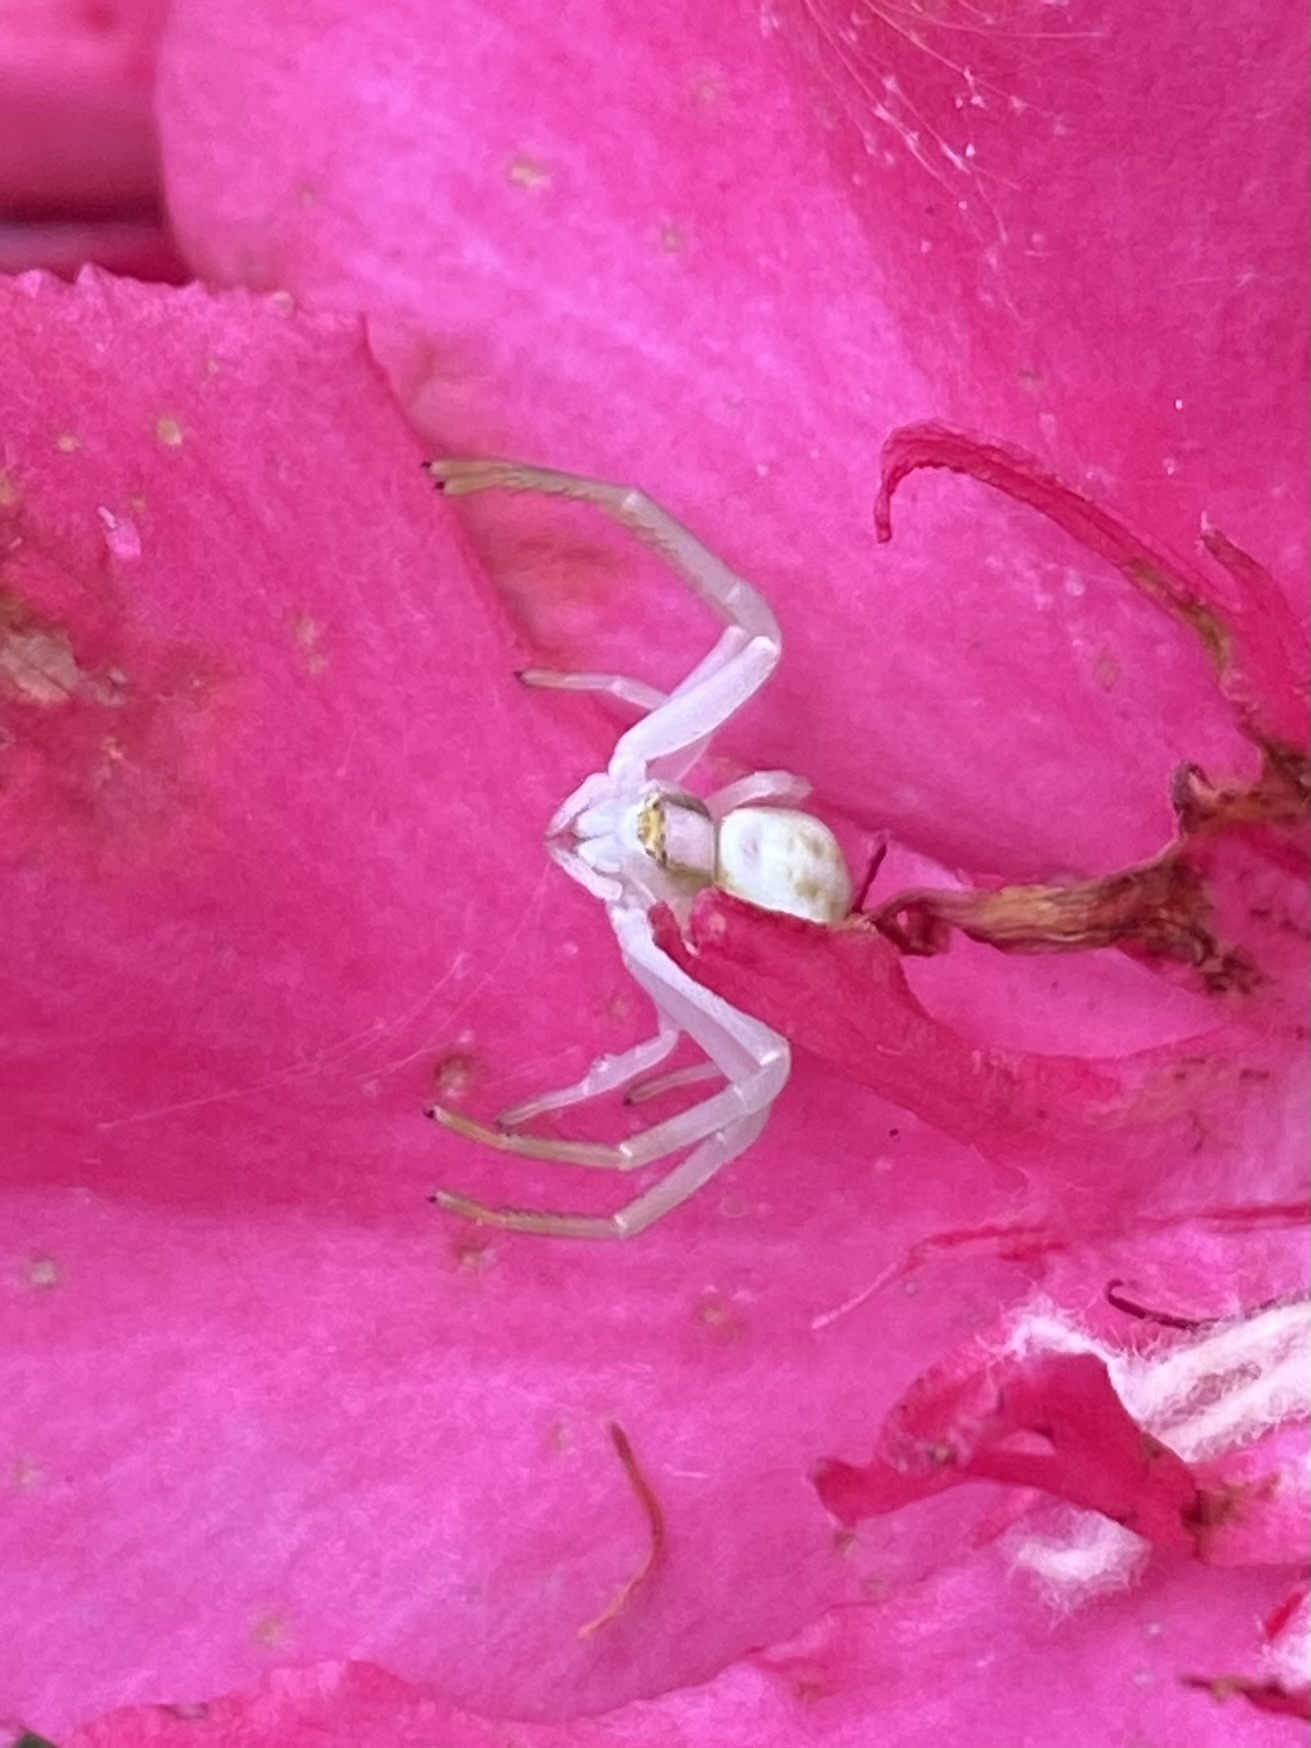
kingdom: Animalia
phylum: Arthropoda
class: Arachnida
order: Araneae
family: Thomisidae
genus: Misumena
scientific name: Misumena vatia
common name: Goldenrod crab spider
